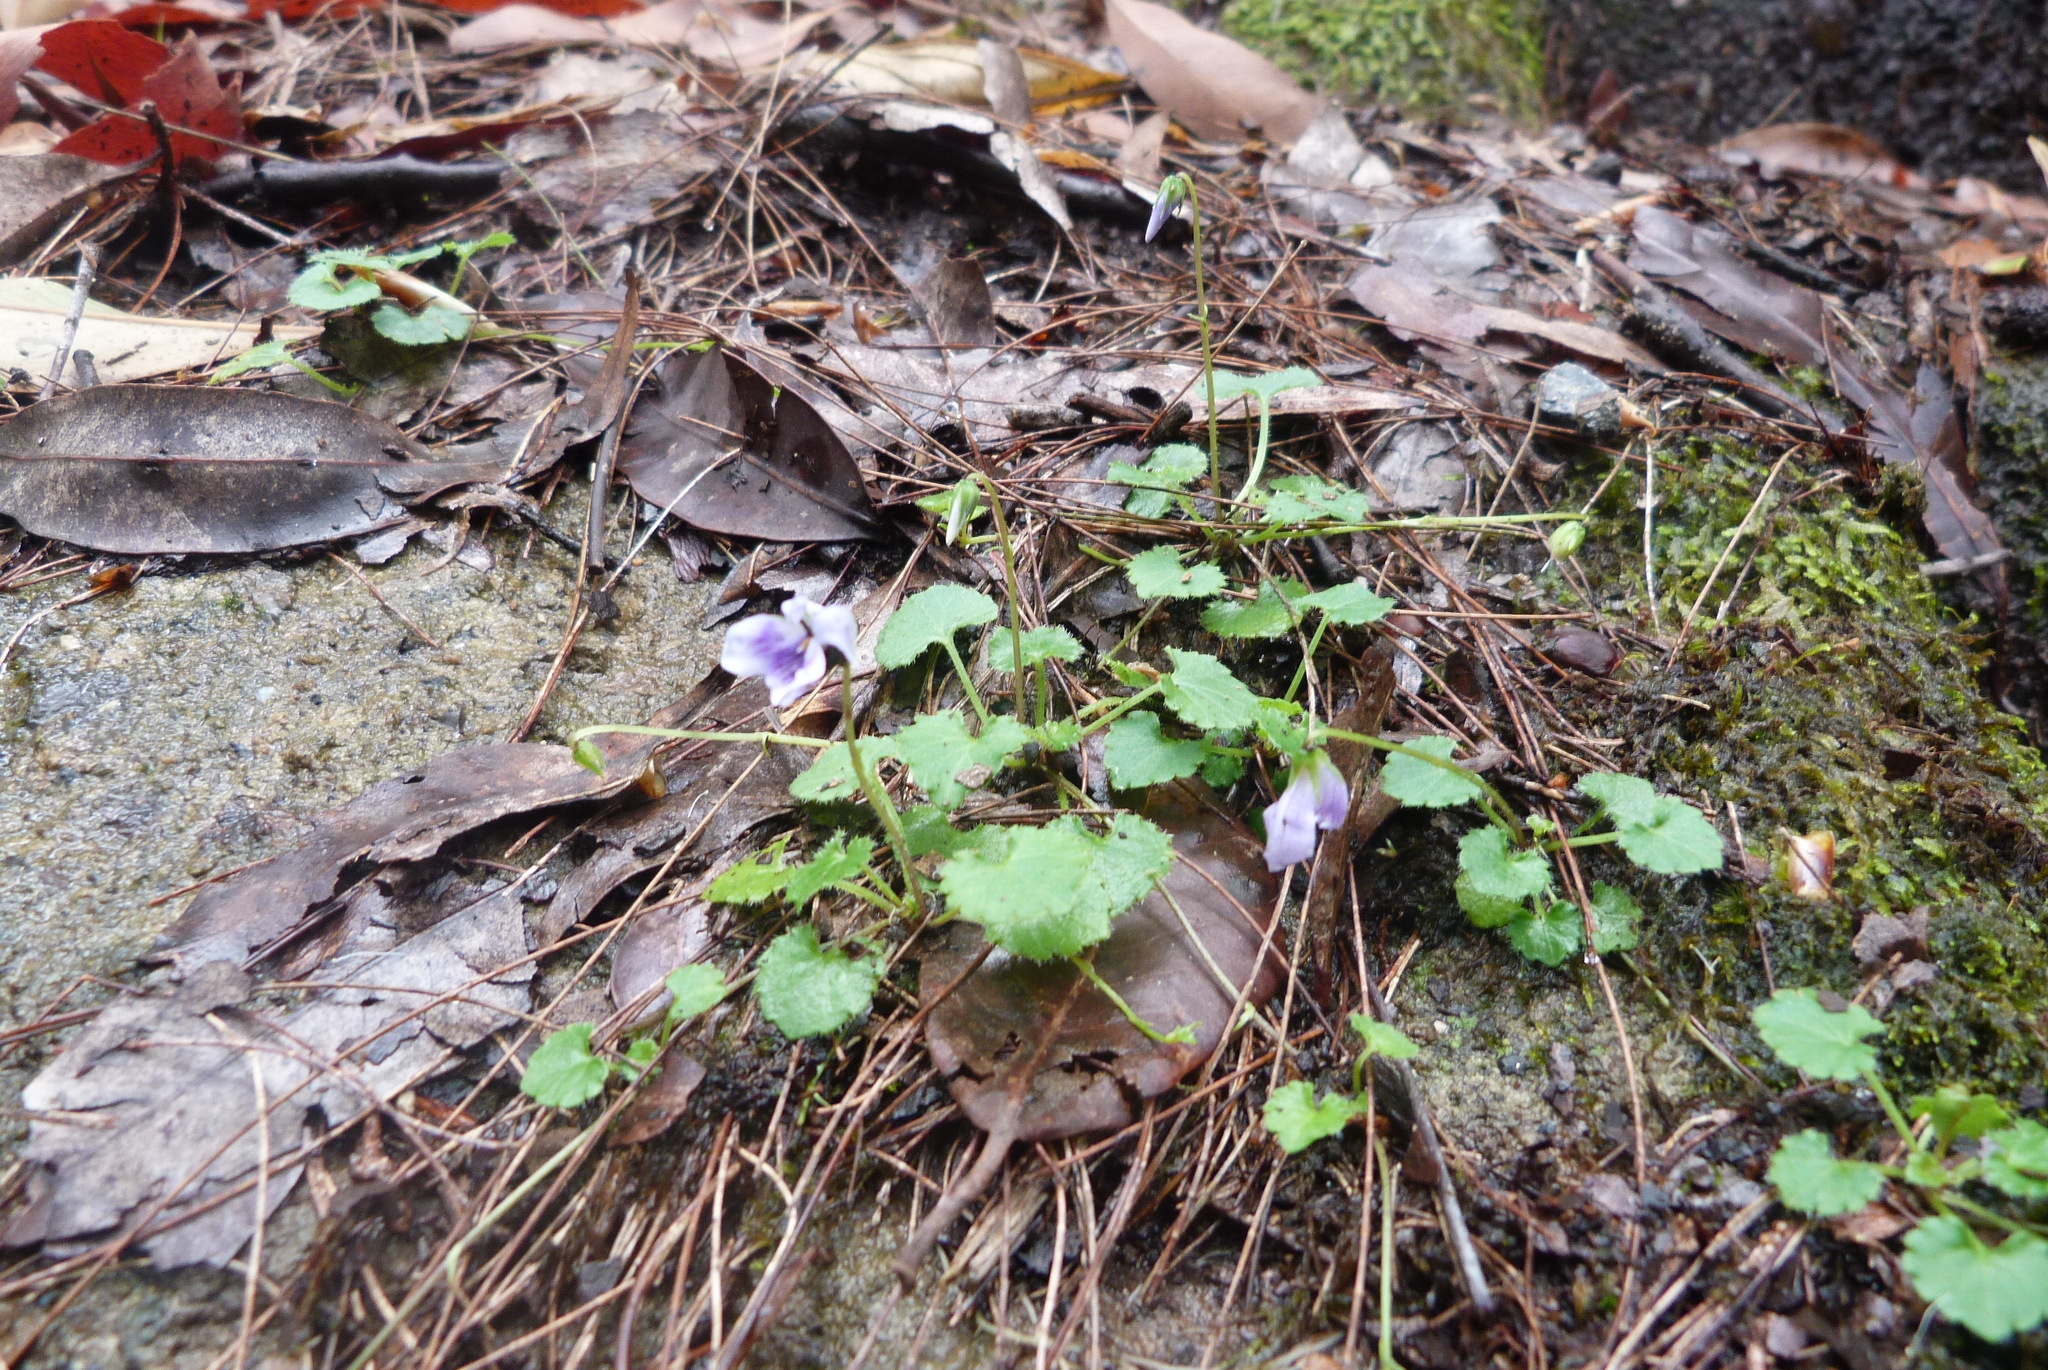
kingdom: Plantae
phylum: Tracheophyta
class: Magnoliopsida
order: Malpighiales
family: Violaceae
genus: Viola
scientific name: Viola perreniformis
